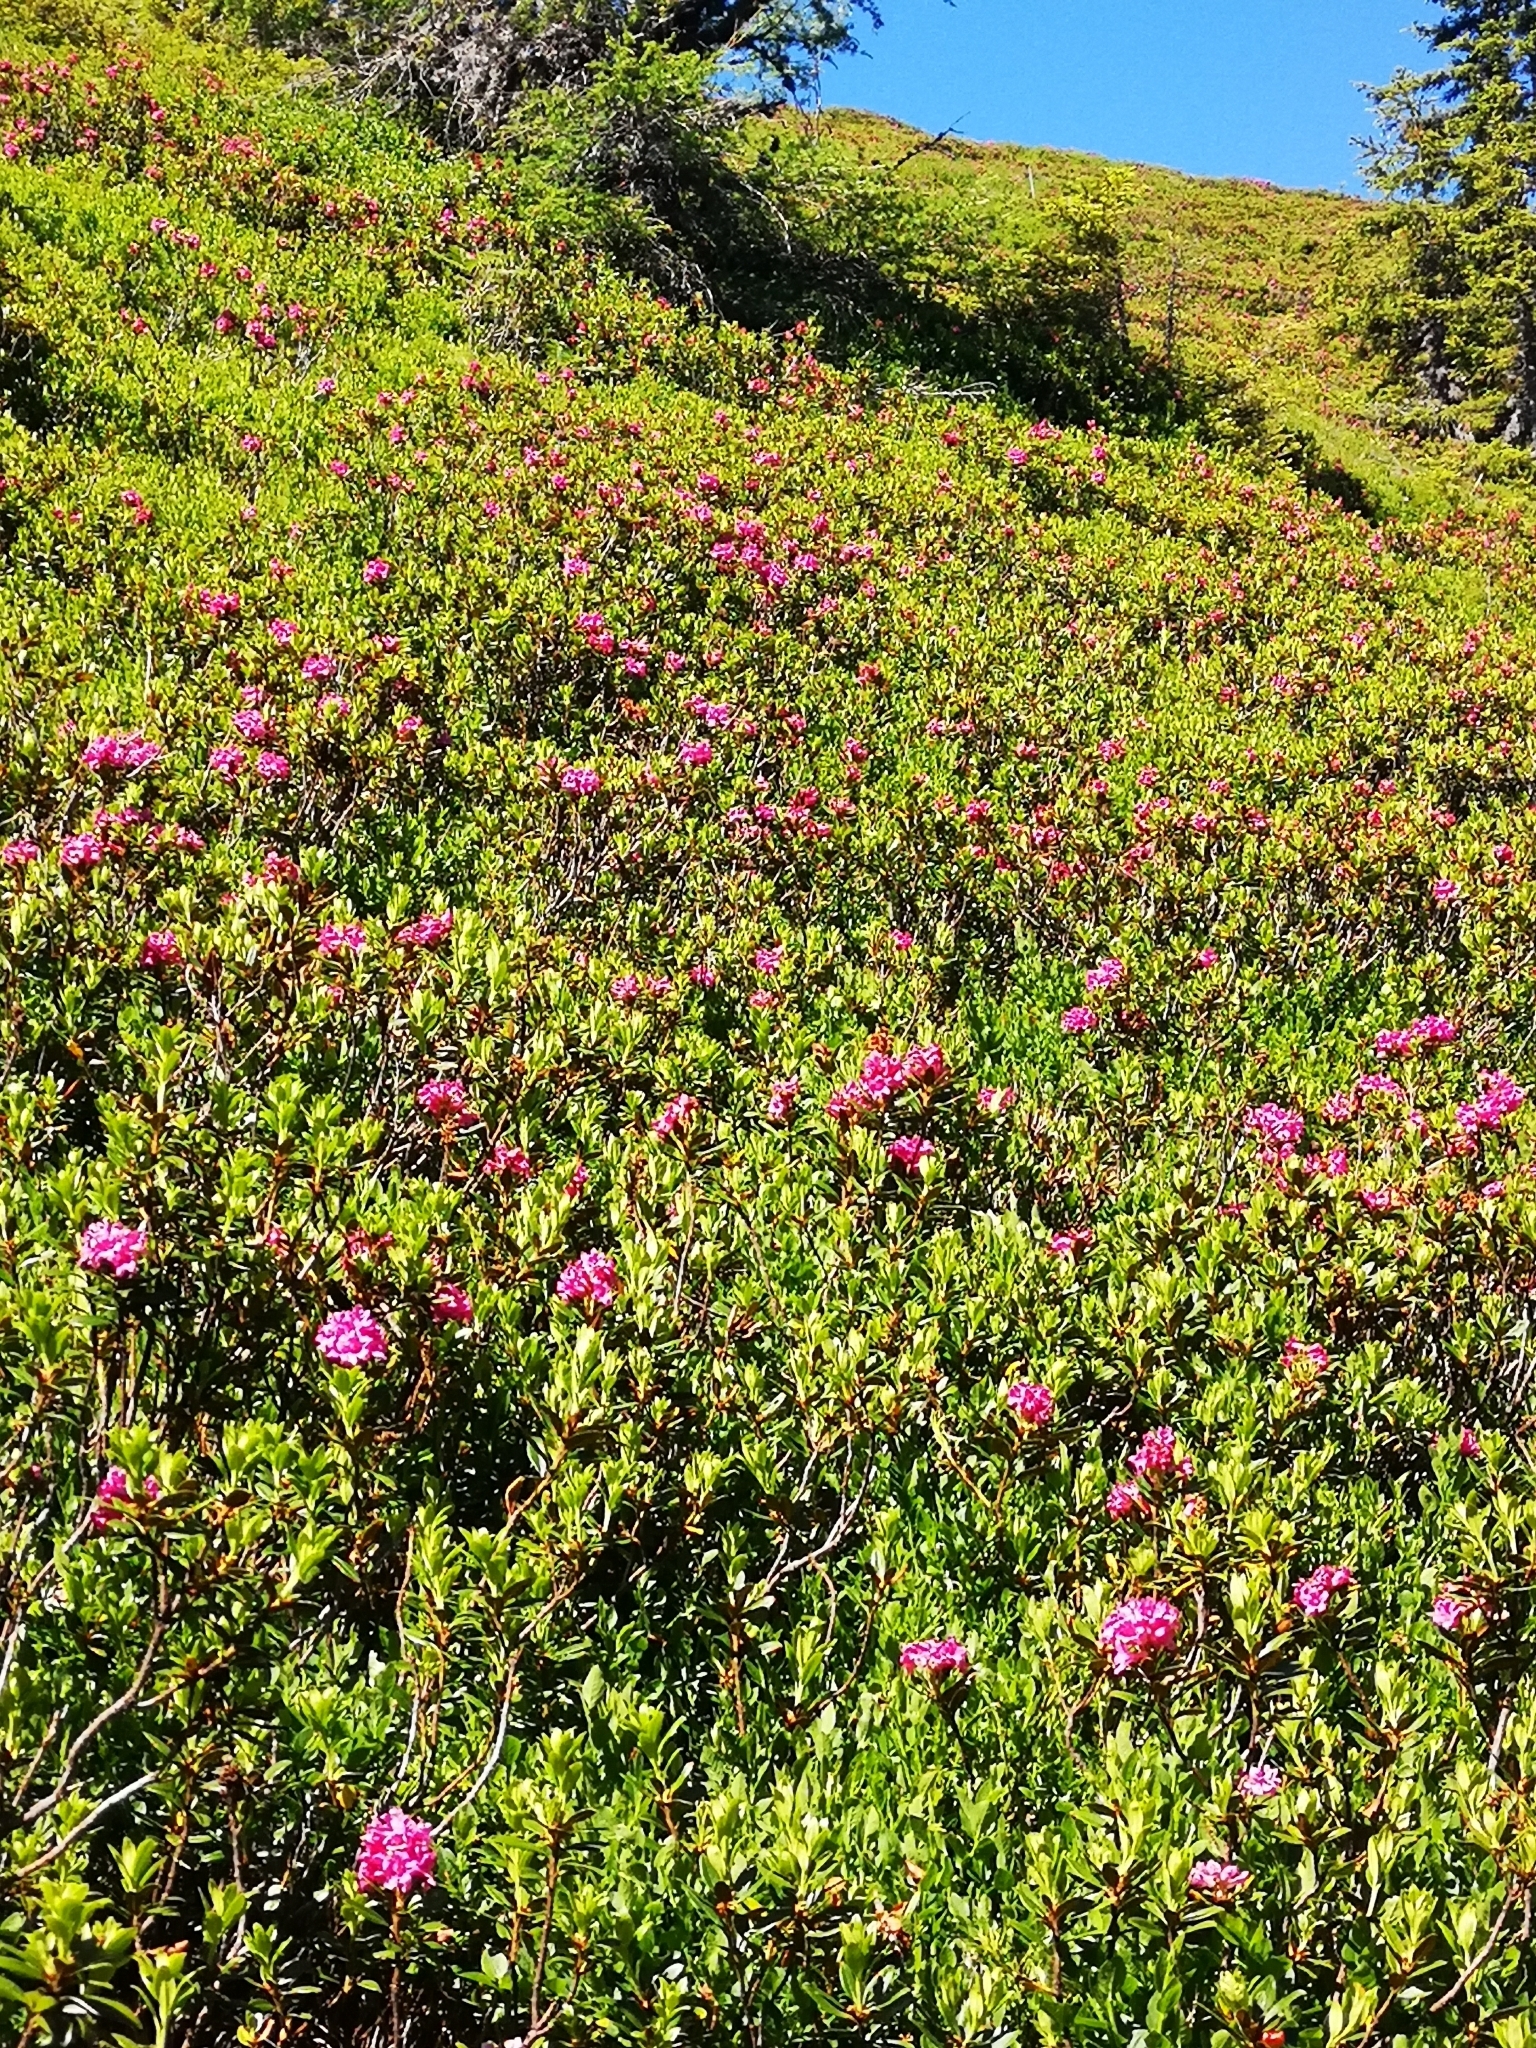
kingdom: Plantae
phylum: Tracheophyta
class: Magnoliopsida
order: Ericales
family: Ericaceae
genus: Rhododendron
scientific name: Rhododendron ferrugineum
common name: Alpenrose
